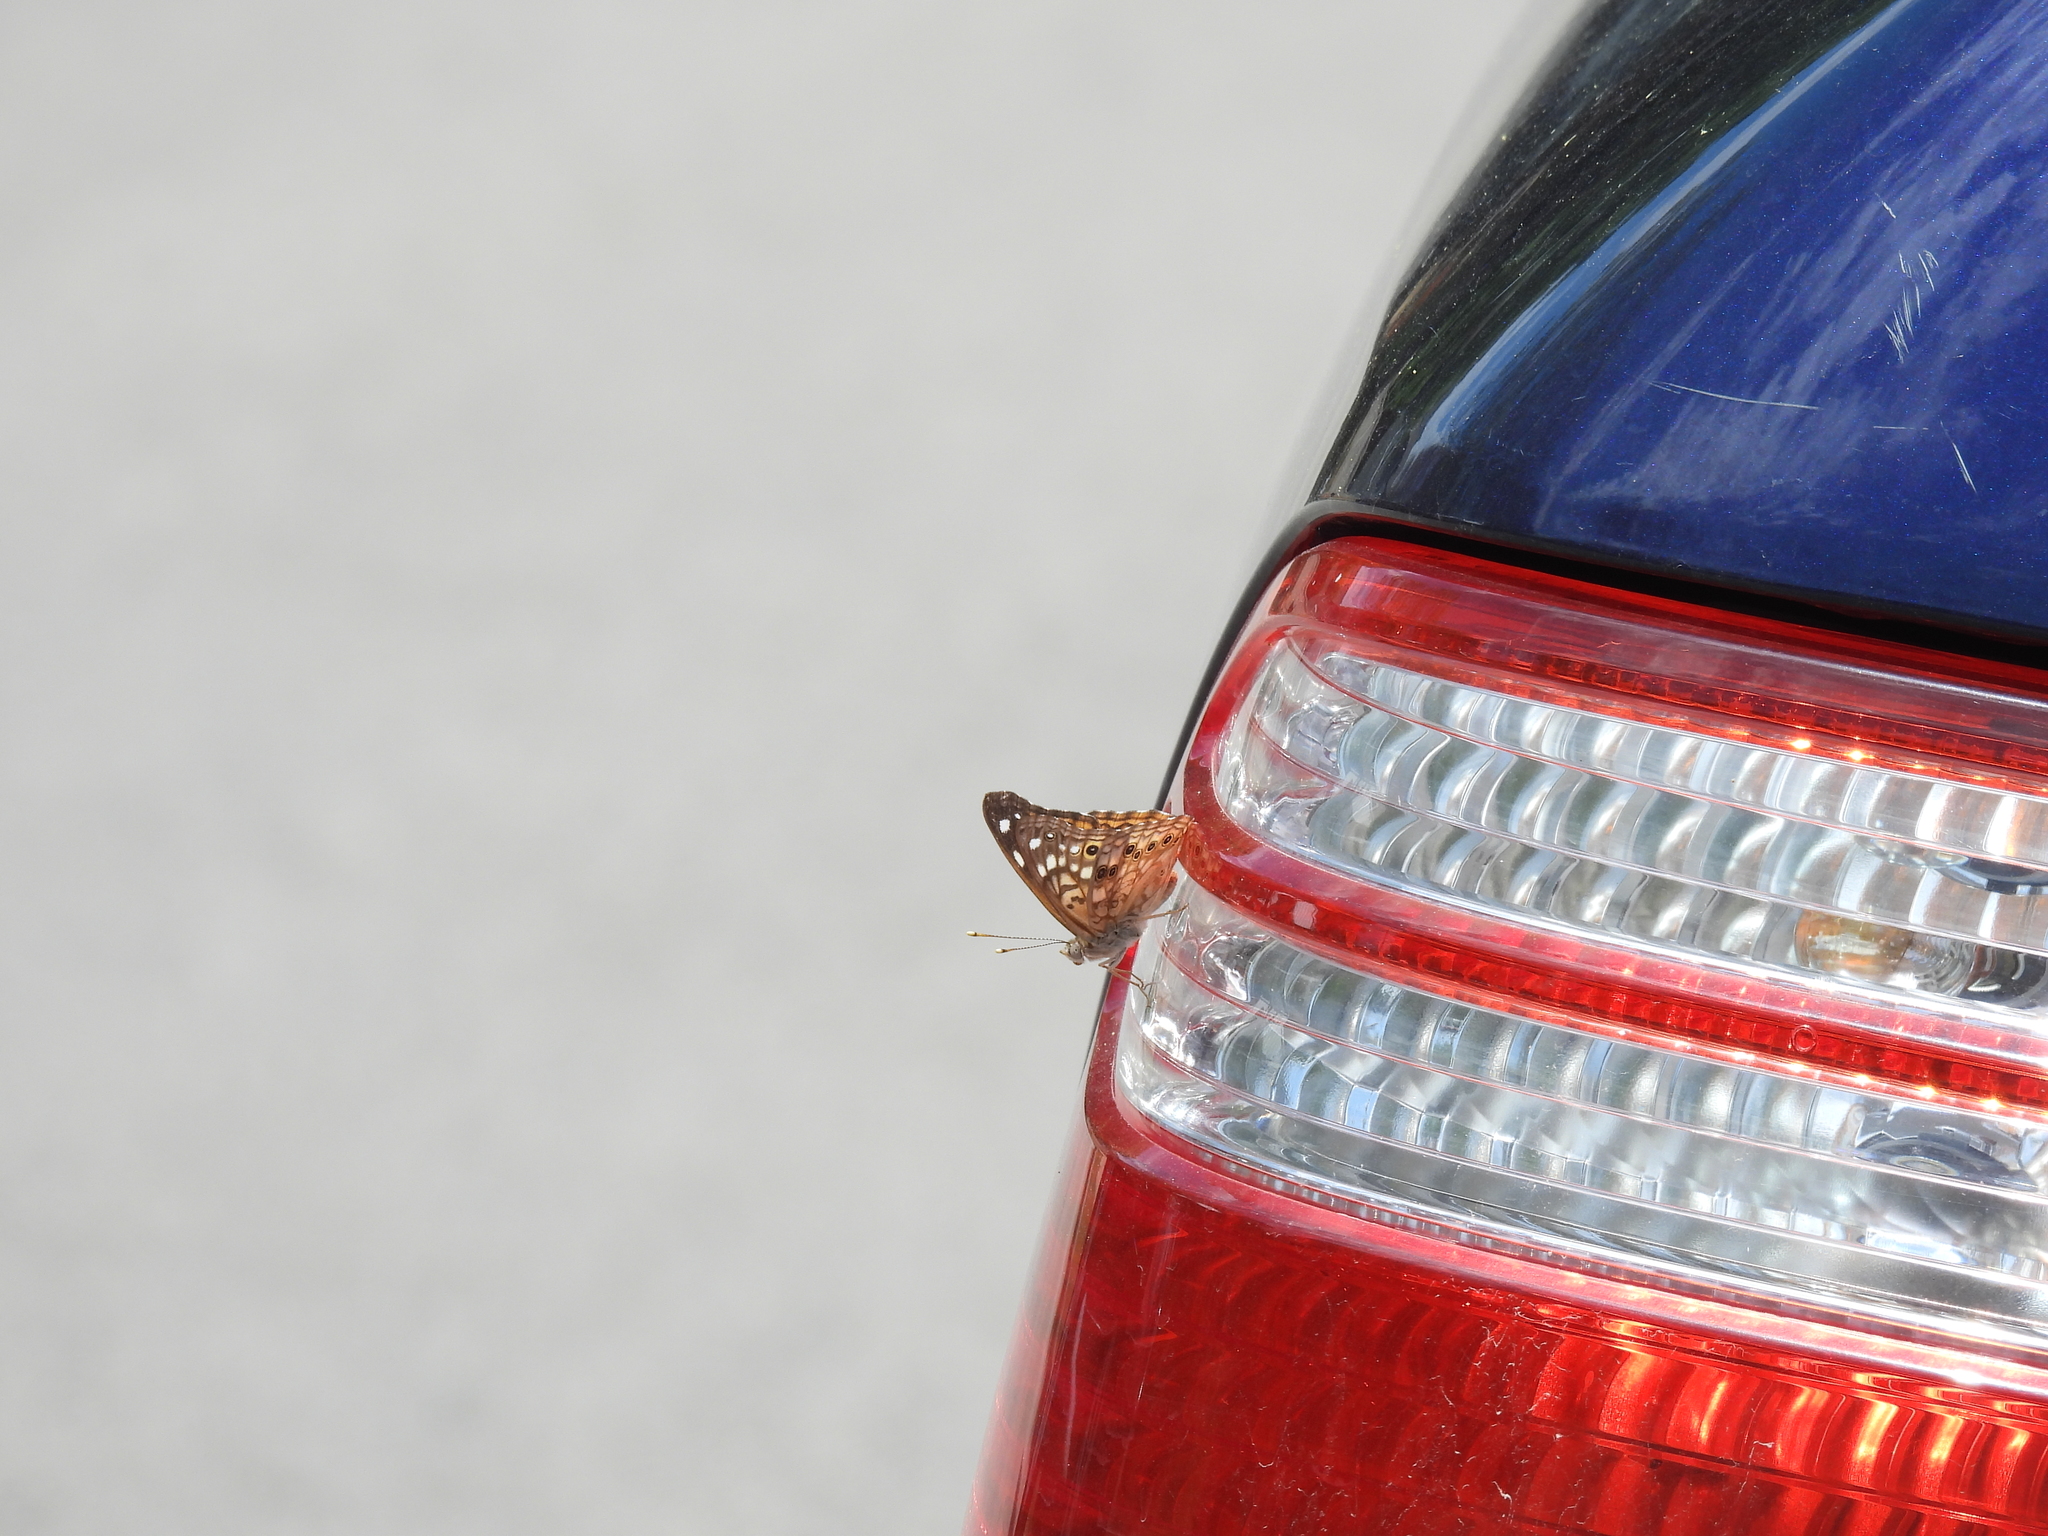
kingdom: Animalia
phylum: Arthropoda
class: Insecta
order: Lepidoptera
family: Nymphalidae
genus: Asterocampa
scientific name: Asterocampa celtis
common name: Hackberry emperor
